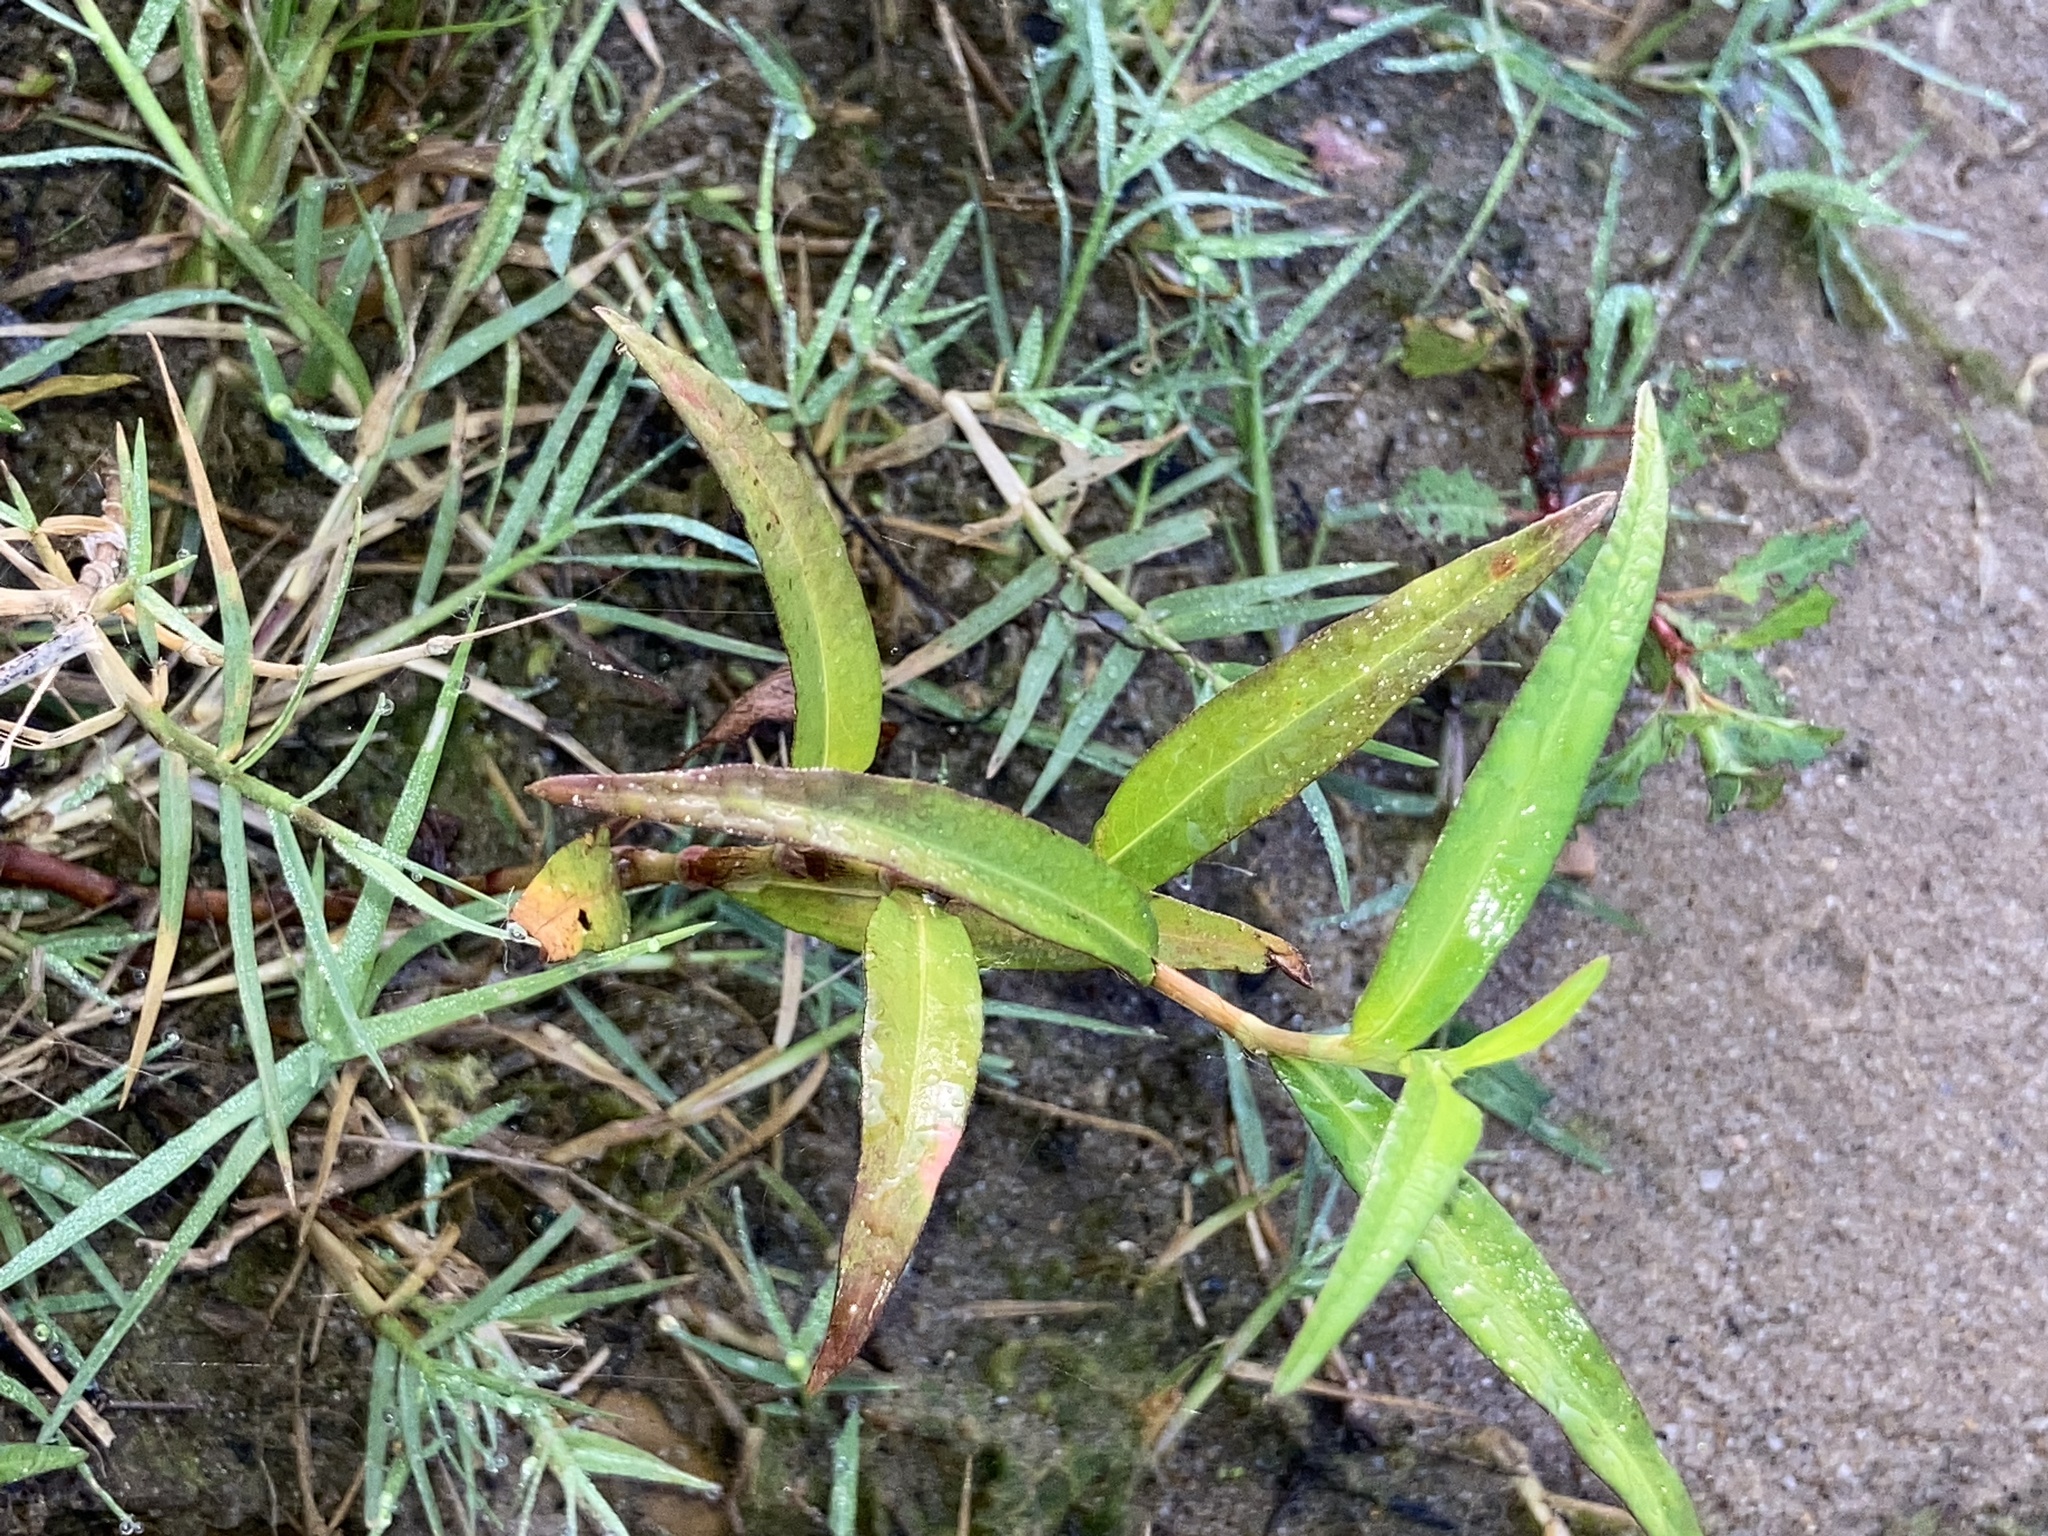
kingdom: Plantae
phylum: Tracheophyta
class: Magnoliopsida
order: Caryophyllales
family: Polygonaceae
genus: Persicaria
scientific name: Persicaria longiseta
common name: Bristly lady's-thumb
